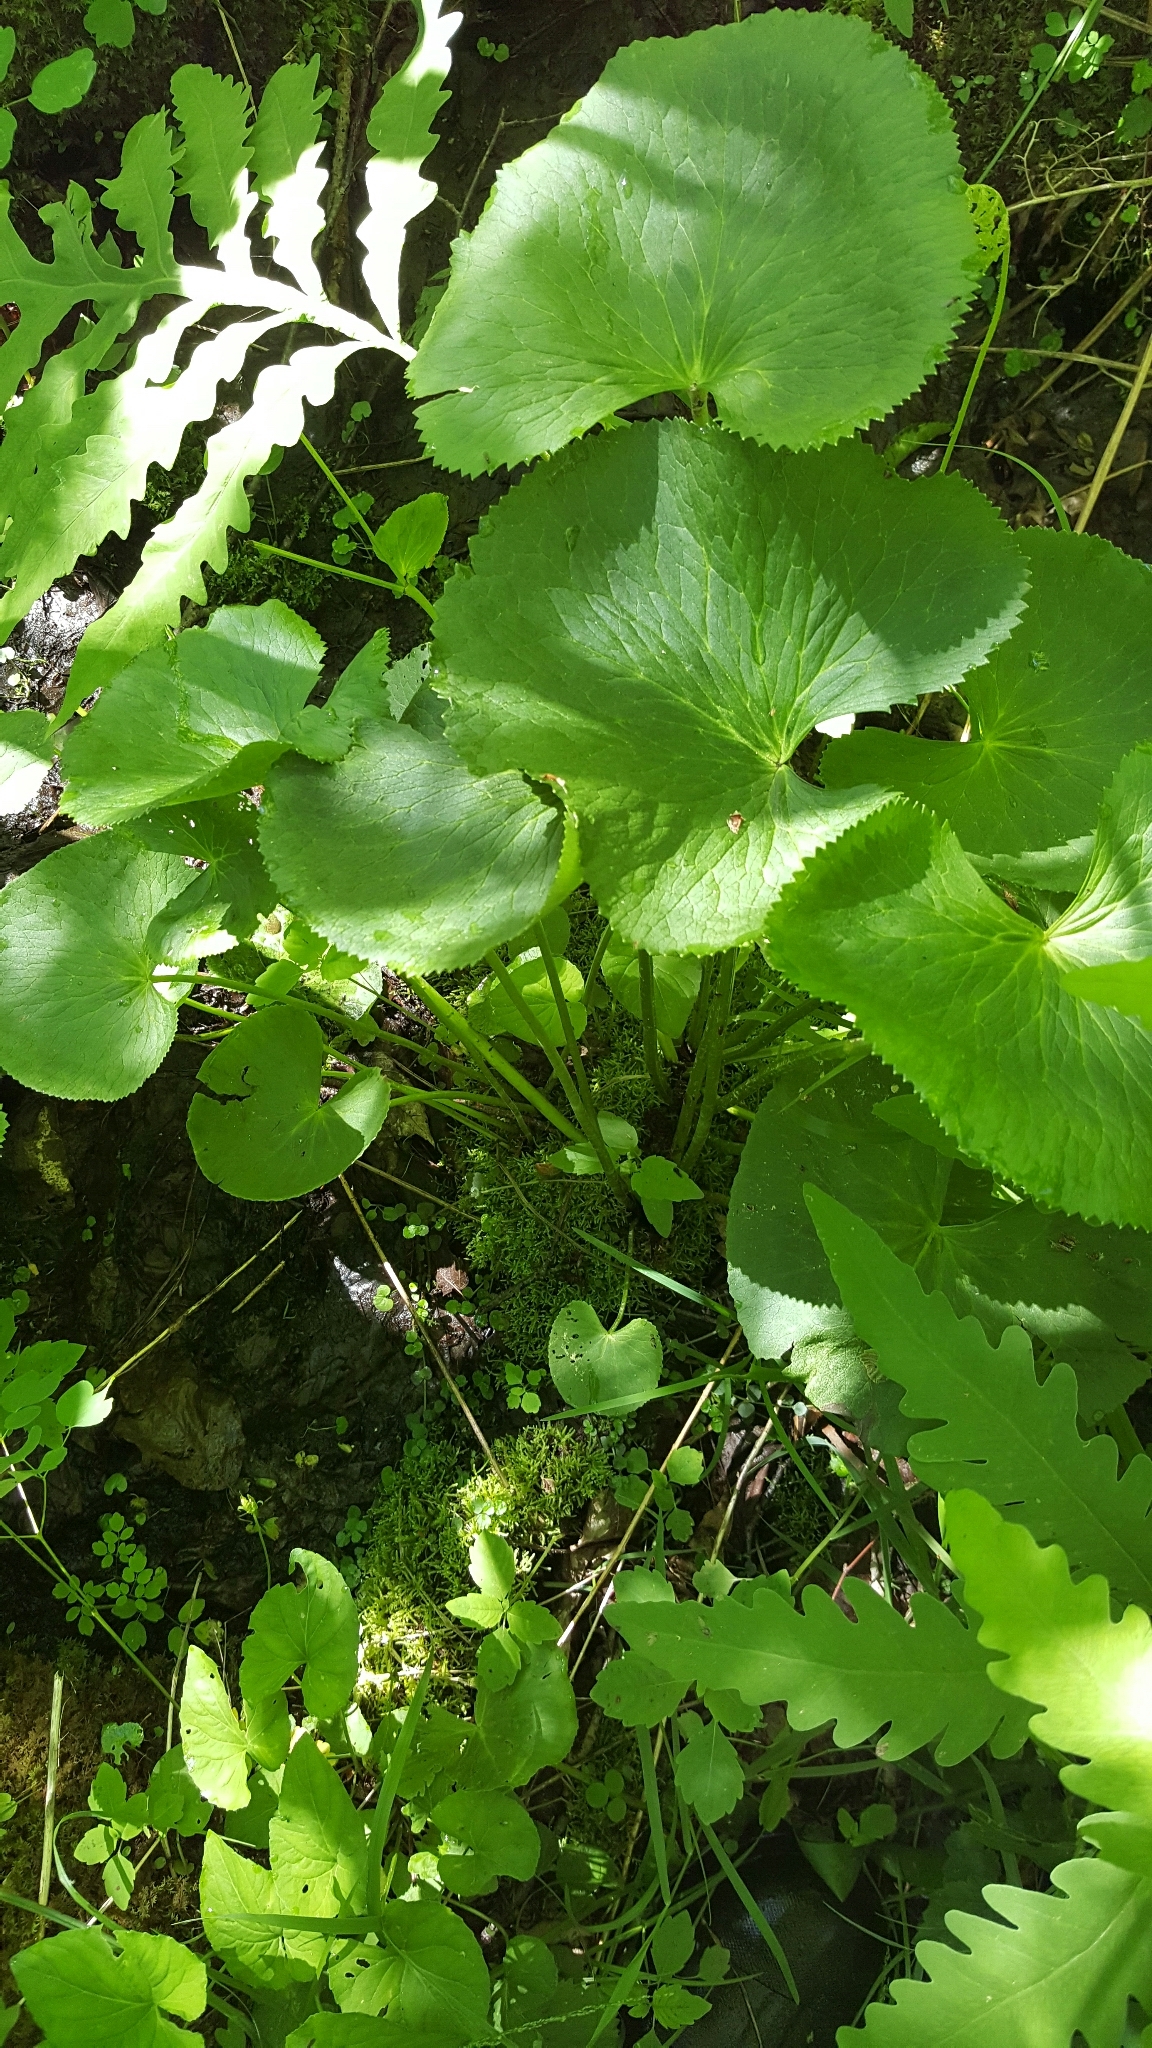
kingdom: Plantae
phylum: Tracheophyta
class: Magnoliopsida
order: Ranunculales
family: Ranunculaceae
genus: Caltha
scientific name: Caltha palustris
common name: Marsh marigold
